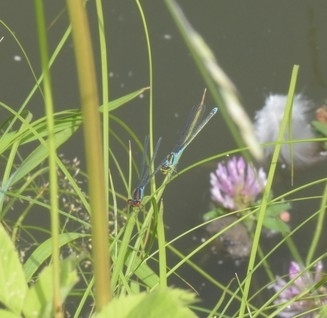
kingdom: Animalia
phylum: Arthropoda
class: Insecta
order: Odonata
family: Coenagrionidae
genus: Erythromma
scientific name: Erythromma viridulum
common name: Small red-eyed damselfly
